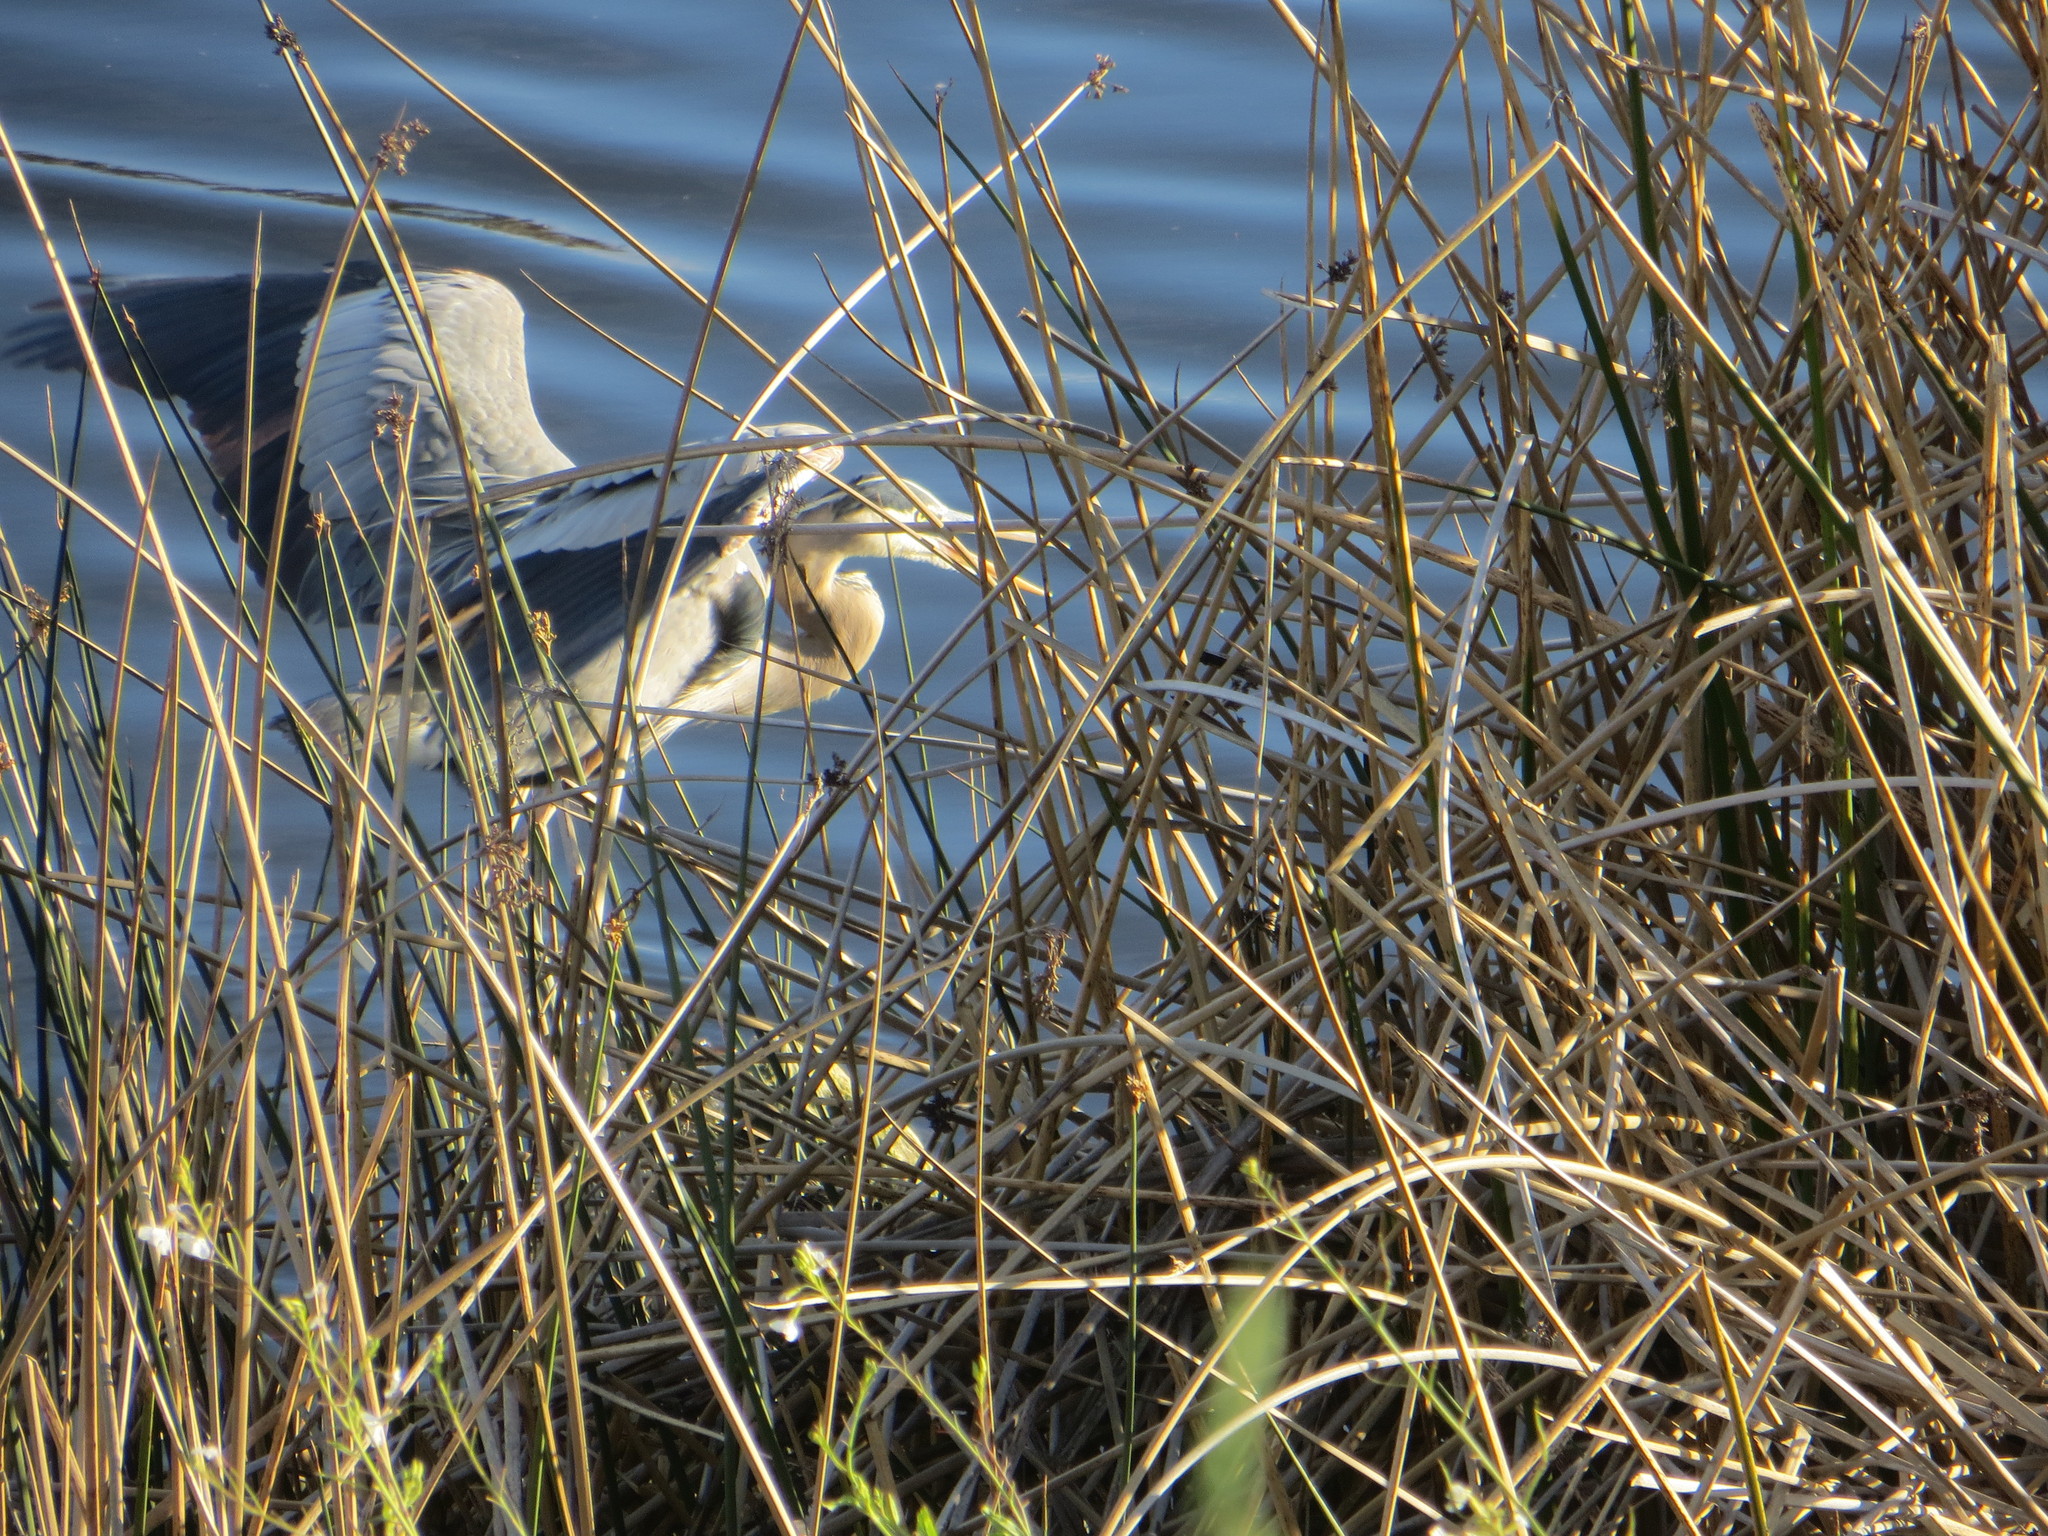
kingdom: Animalia
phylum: Chordata
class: Aves
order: Pelecaniformes
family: Ardeidae
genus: Ardea
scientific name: Ardea herodias
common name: Great blue heron
